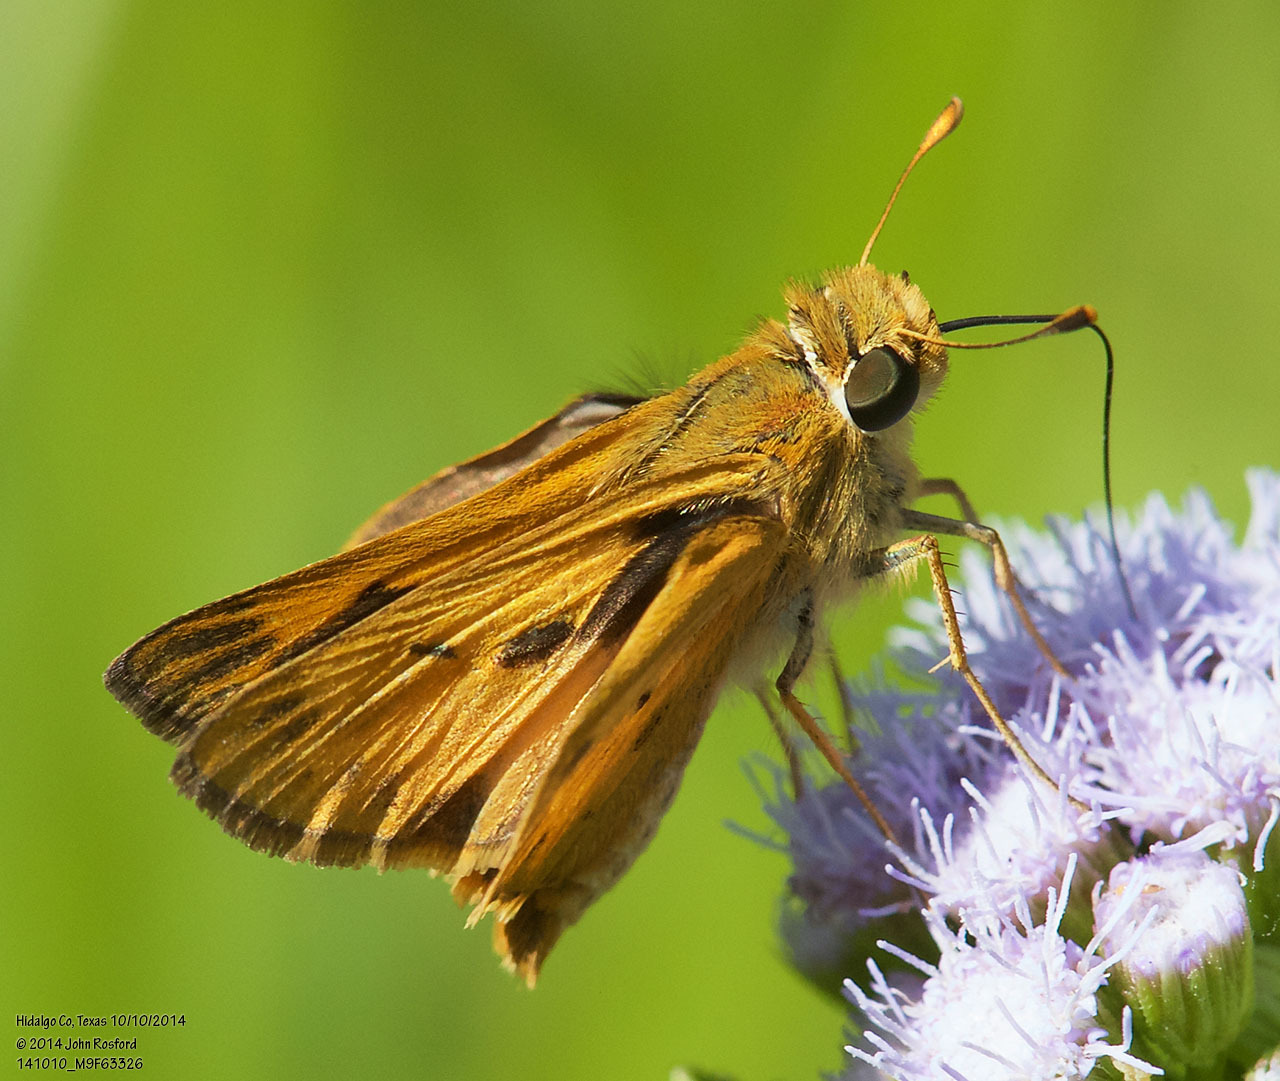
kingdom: Animalia
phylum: Arthropoda
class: Insecta
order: Lepidoptera
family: Hesperiidae
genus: Hylephila
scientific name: Hylephila phyleus
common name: Fiery skipper
